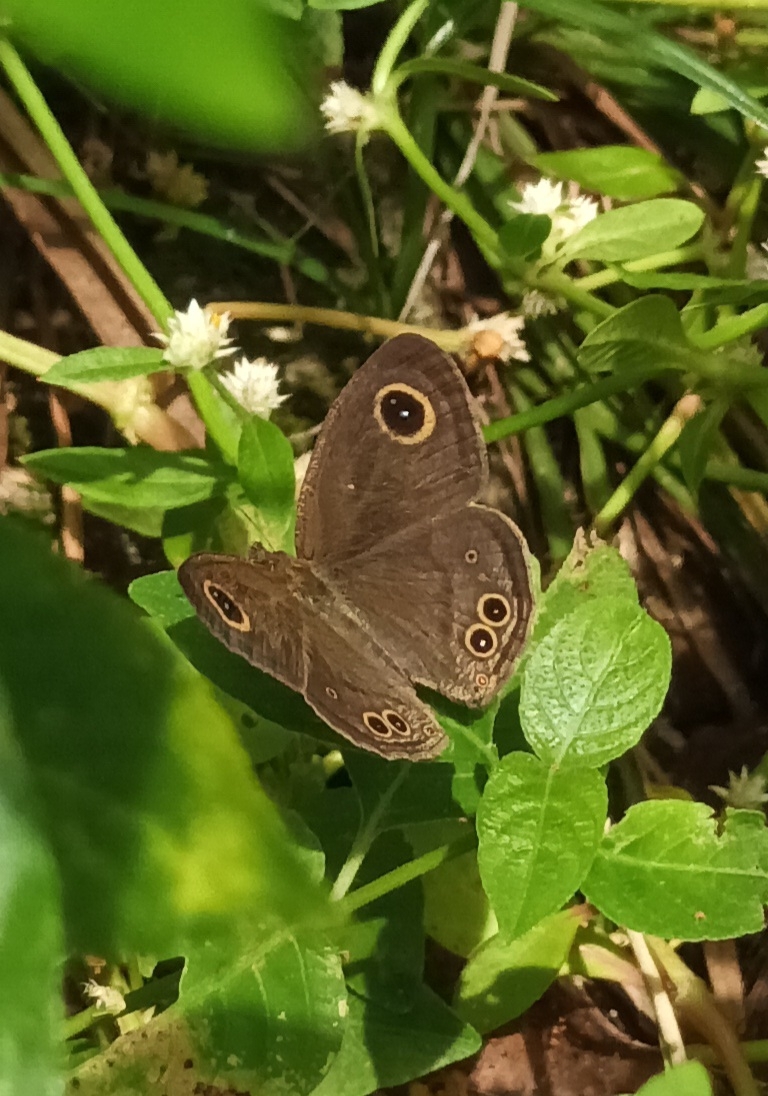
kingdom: Animalia
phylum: Arthropoda
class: Insecta
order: Lepidoptera
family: Nymphalidae
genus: Ypthima
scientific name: Ypthima baldus
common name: Common five-ring
